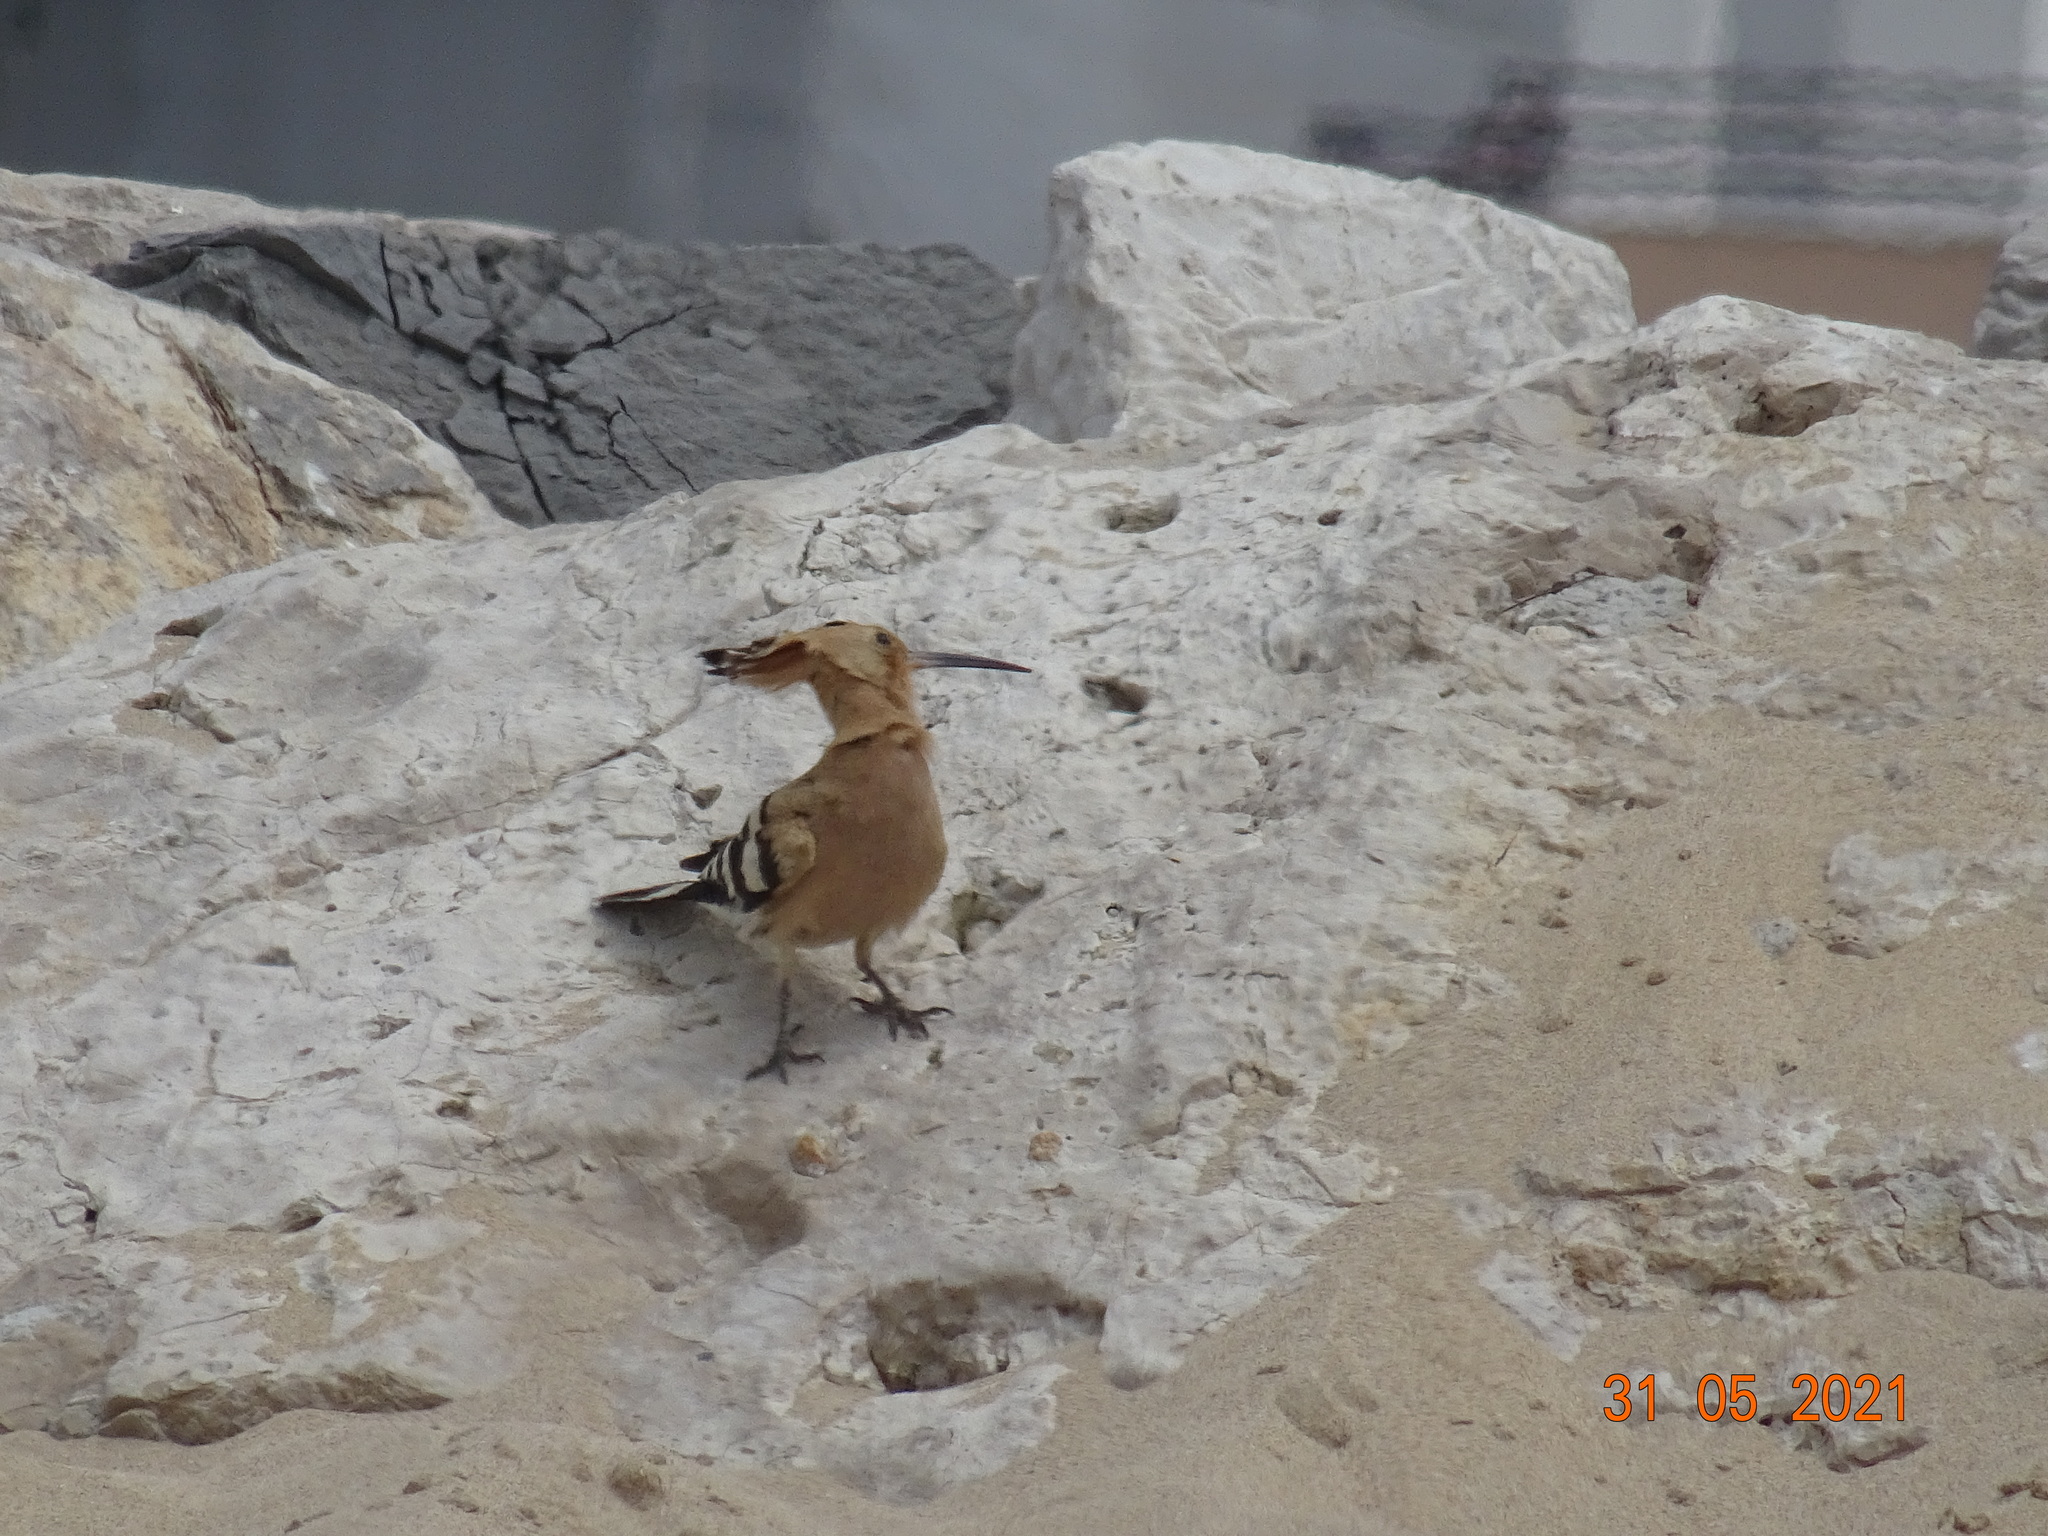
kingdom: Animalia
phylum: Chordata
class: Aves
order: Bucerotiformes
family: Upupidae
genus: Upupa
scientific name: Upupa epops
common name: Eurasian hoopoe
